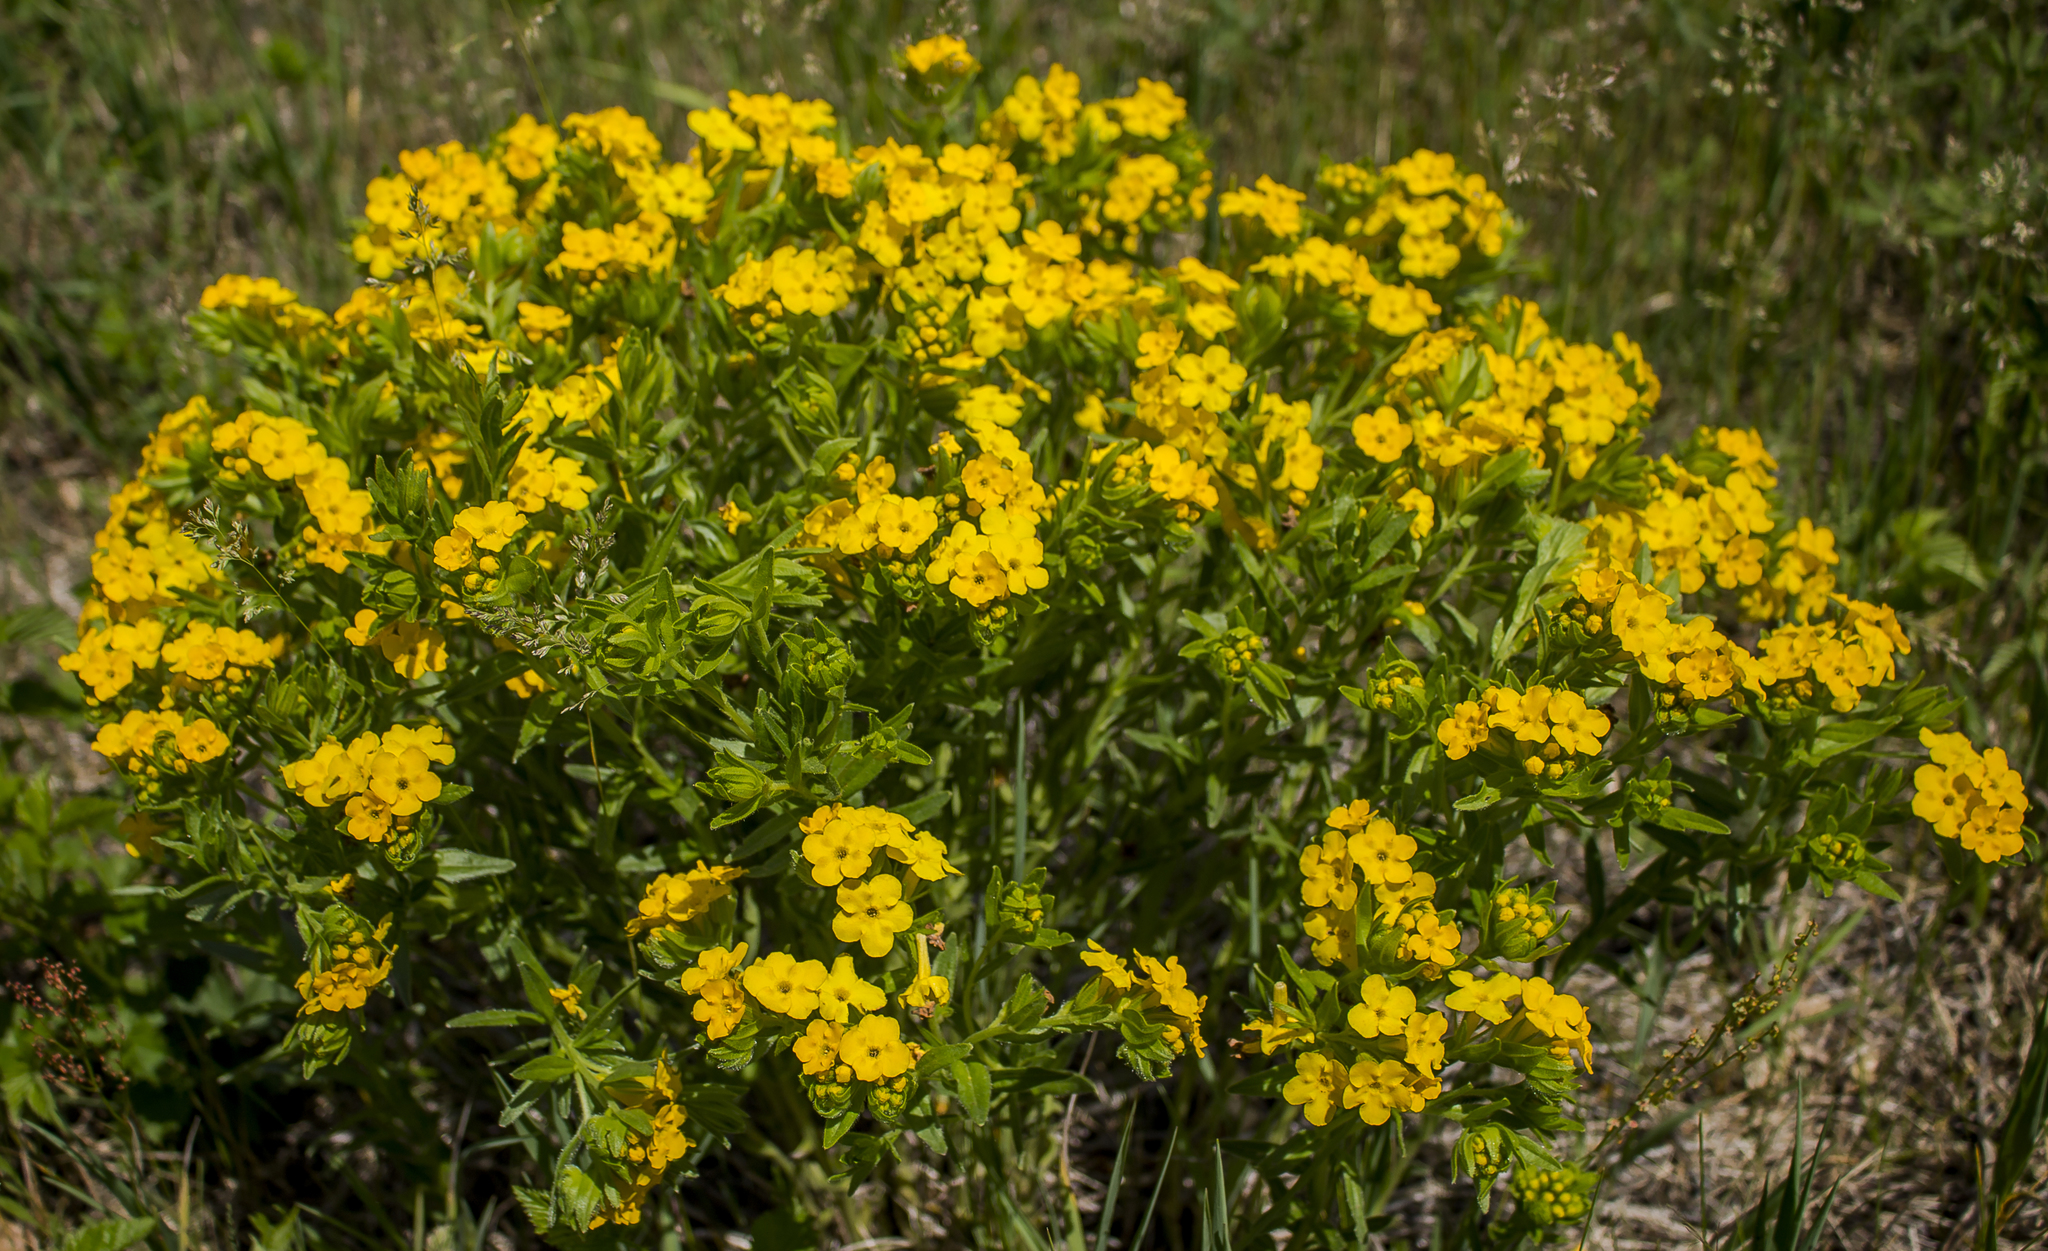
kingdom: Plantae
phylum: Tracheophyta
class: Magnoliopsida
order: Boraginales
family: Boraginaceae
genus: Lithospermum
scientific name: Lithospermum caroliniense
